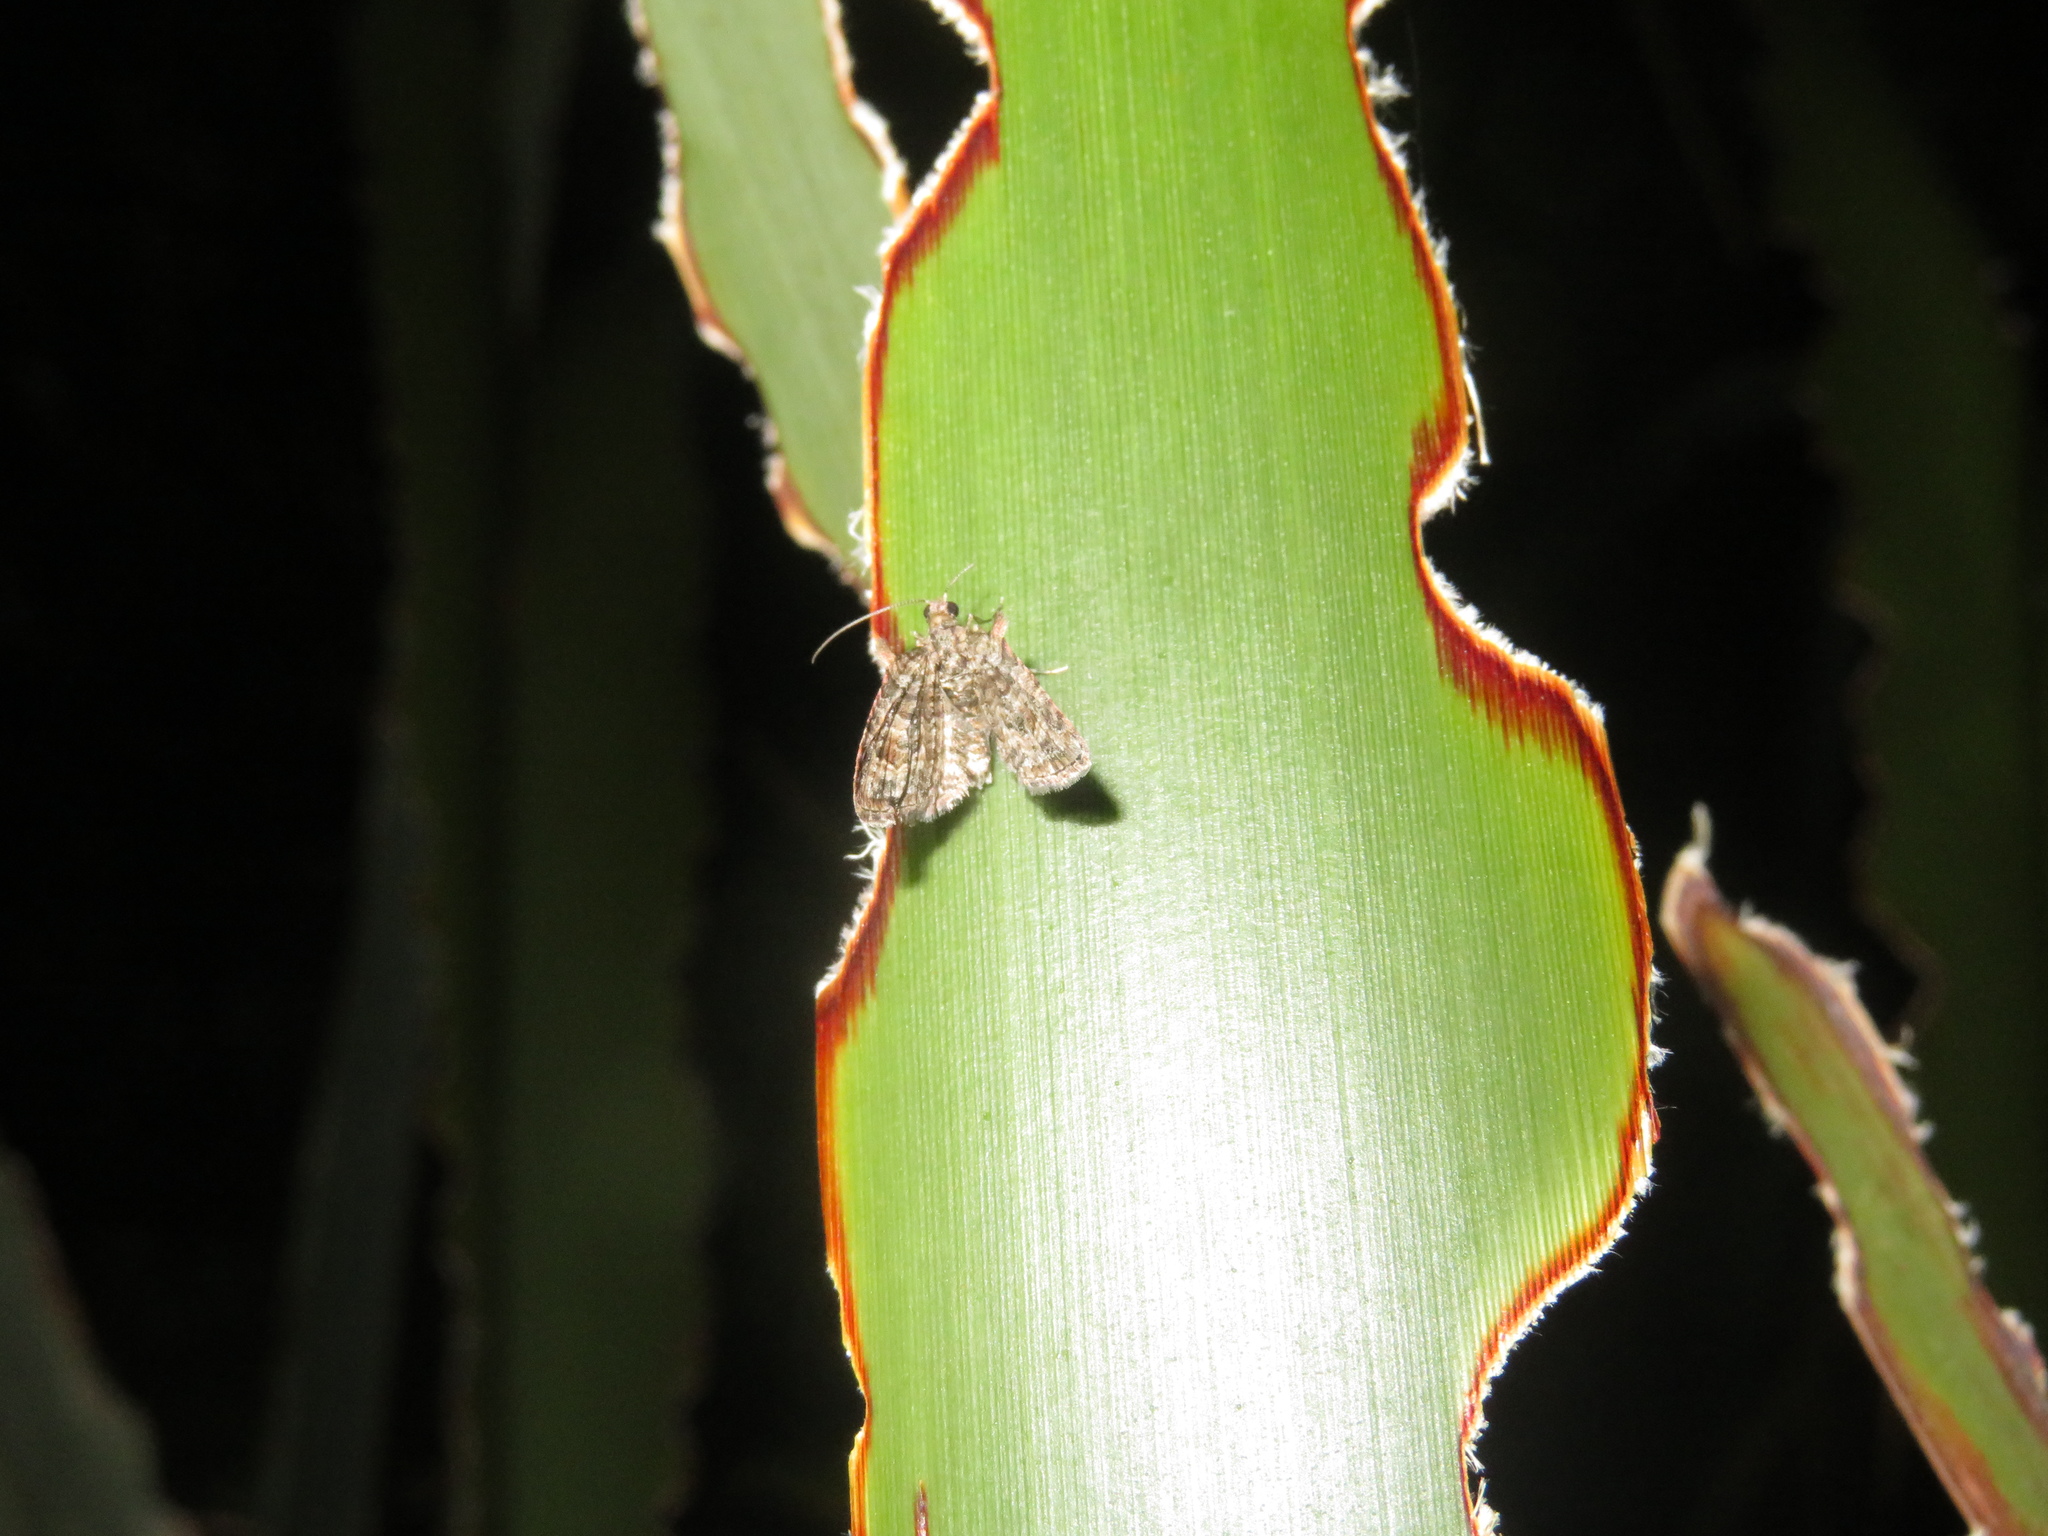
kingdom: Animalia
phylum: Arthropoda
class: Insecta
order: Lepidoptera
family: Geometridae
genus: Phrissogonus
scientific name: Phrissogonus laticostata
